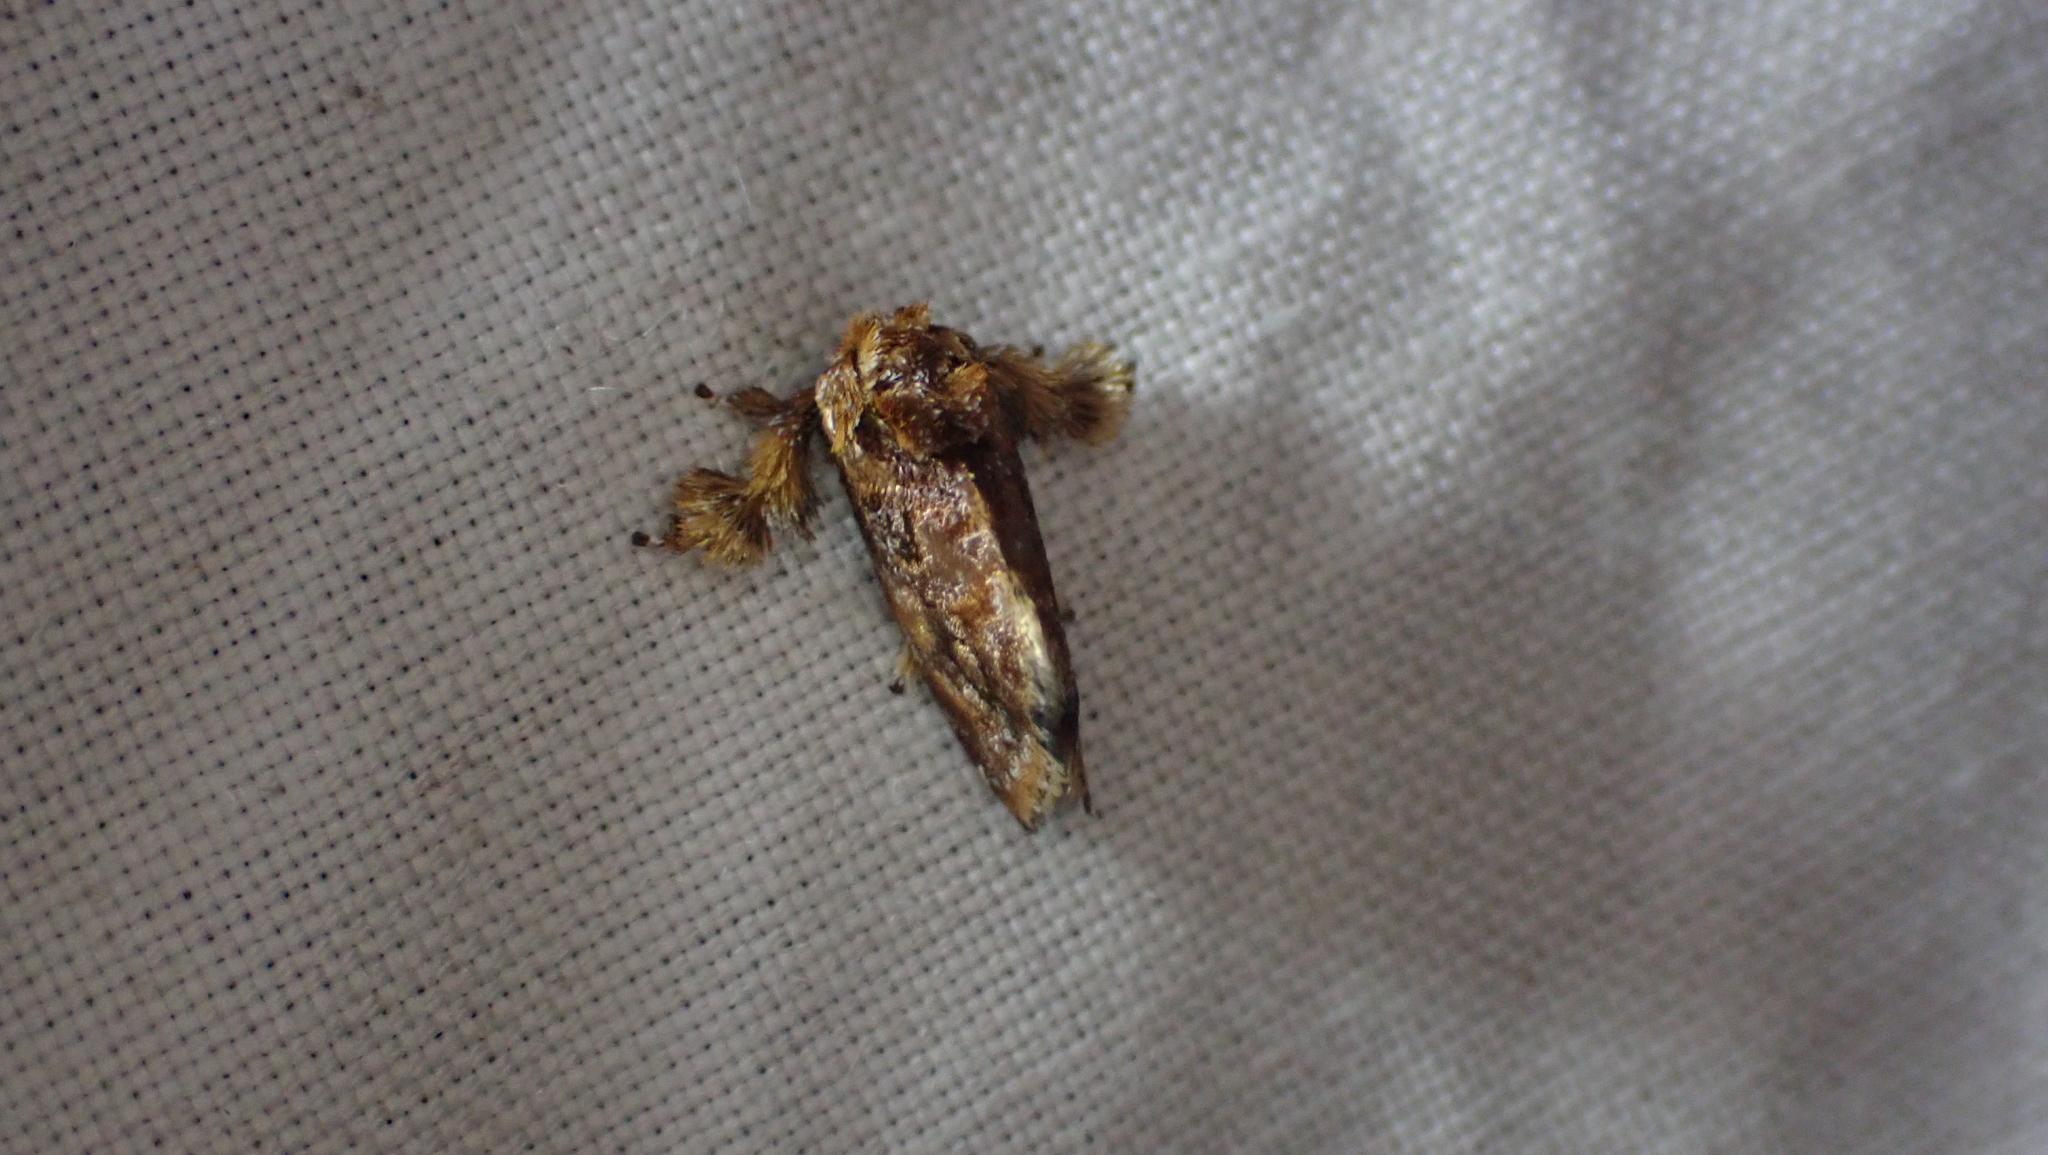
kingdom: Animalia
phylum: Arthropoda
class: Insecta
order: Lepidoptera
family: Limacodidae
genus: Isochaetes
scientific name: Isochaetes beutenmuelleri
